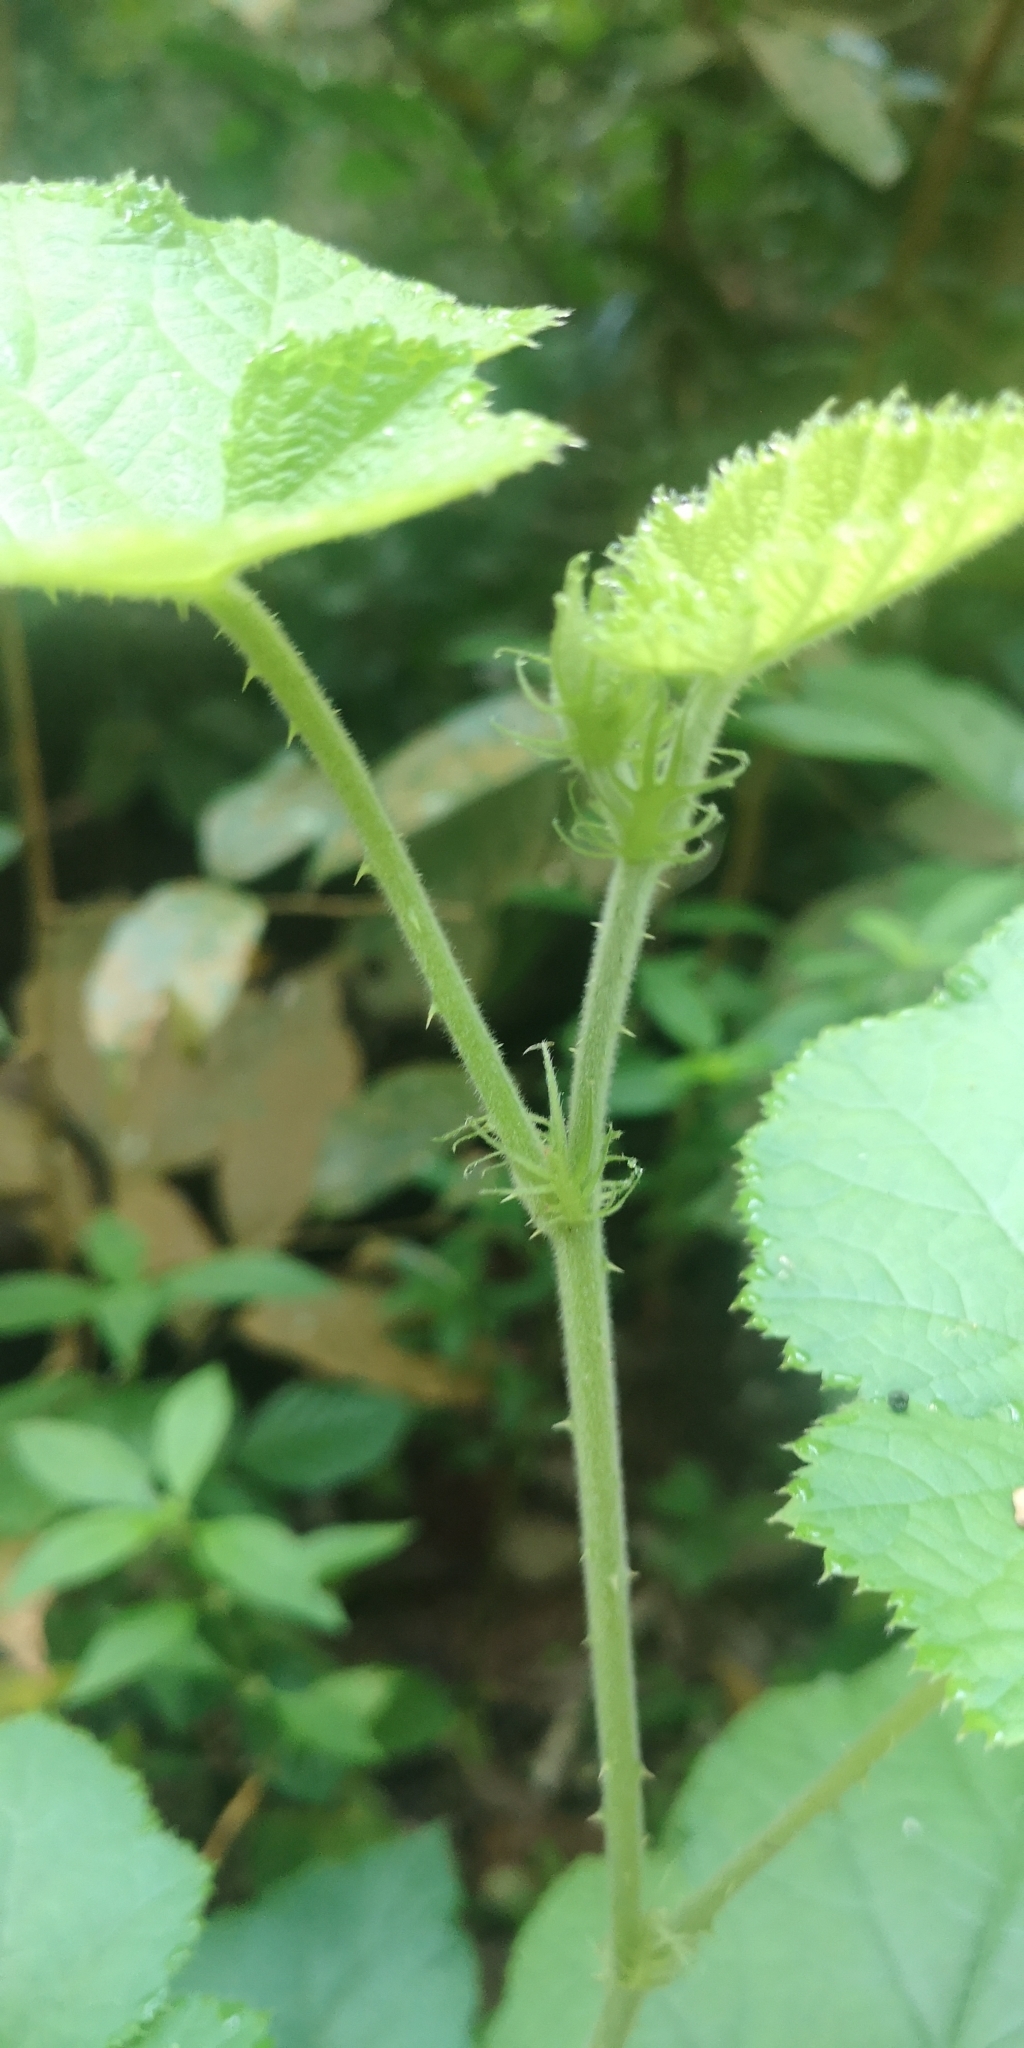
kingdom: Plantae
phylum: Tracheophyta
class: Magnoliopsida
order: Rosales
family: Rosaceae
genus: Rubus
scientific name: Rubus moluccanus
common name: Wild raspberry
